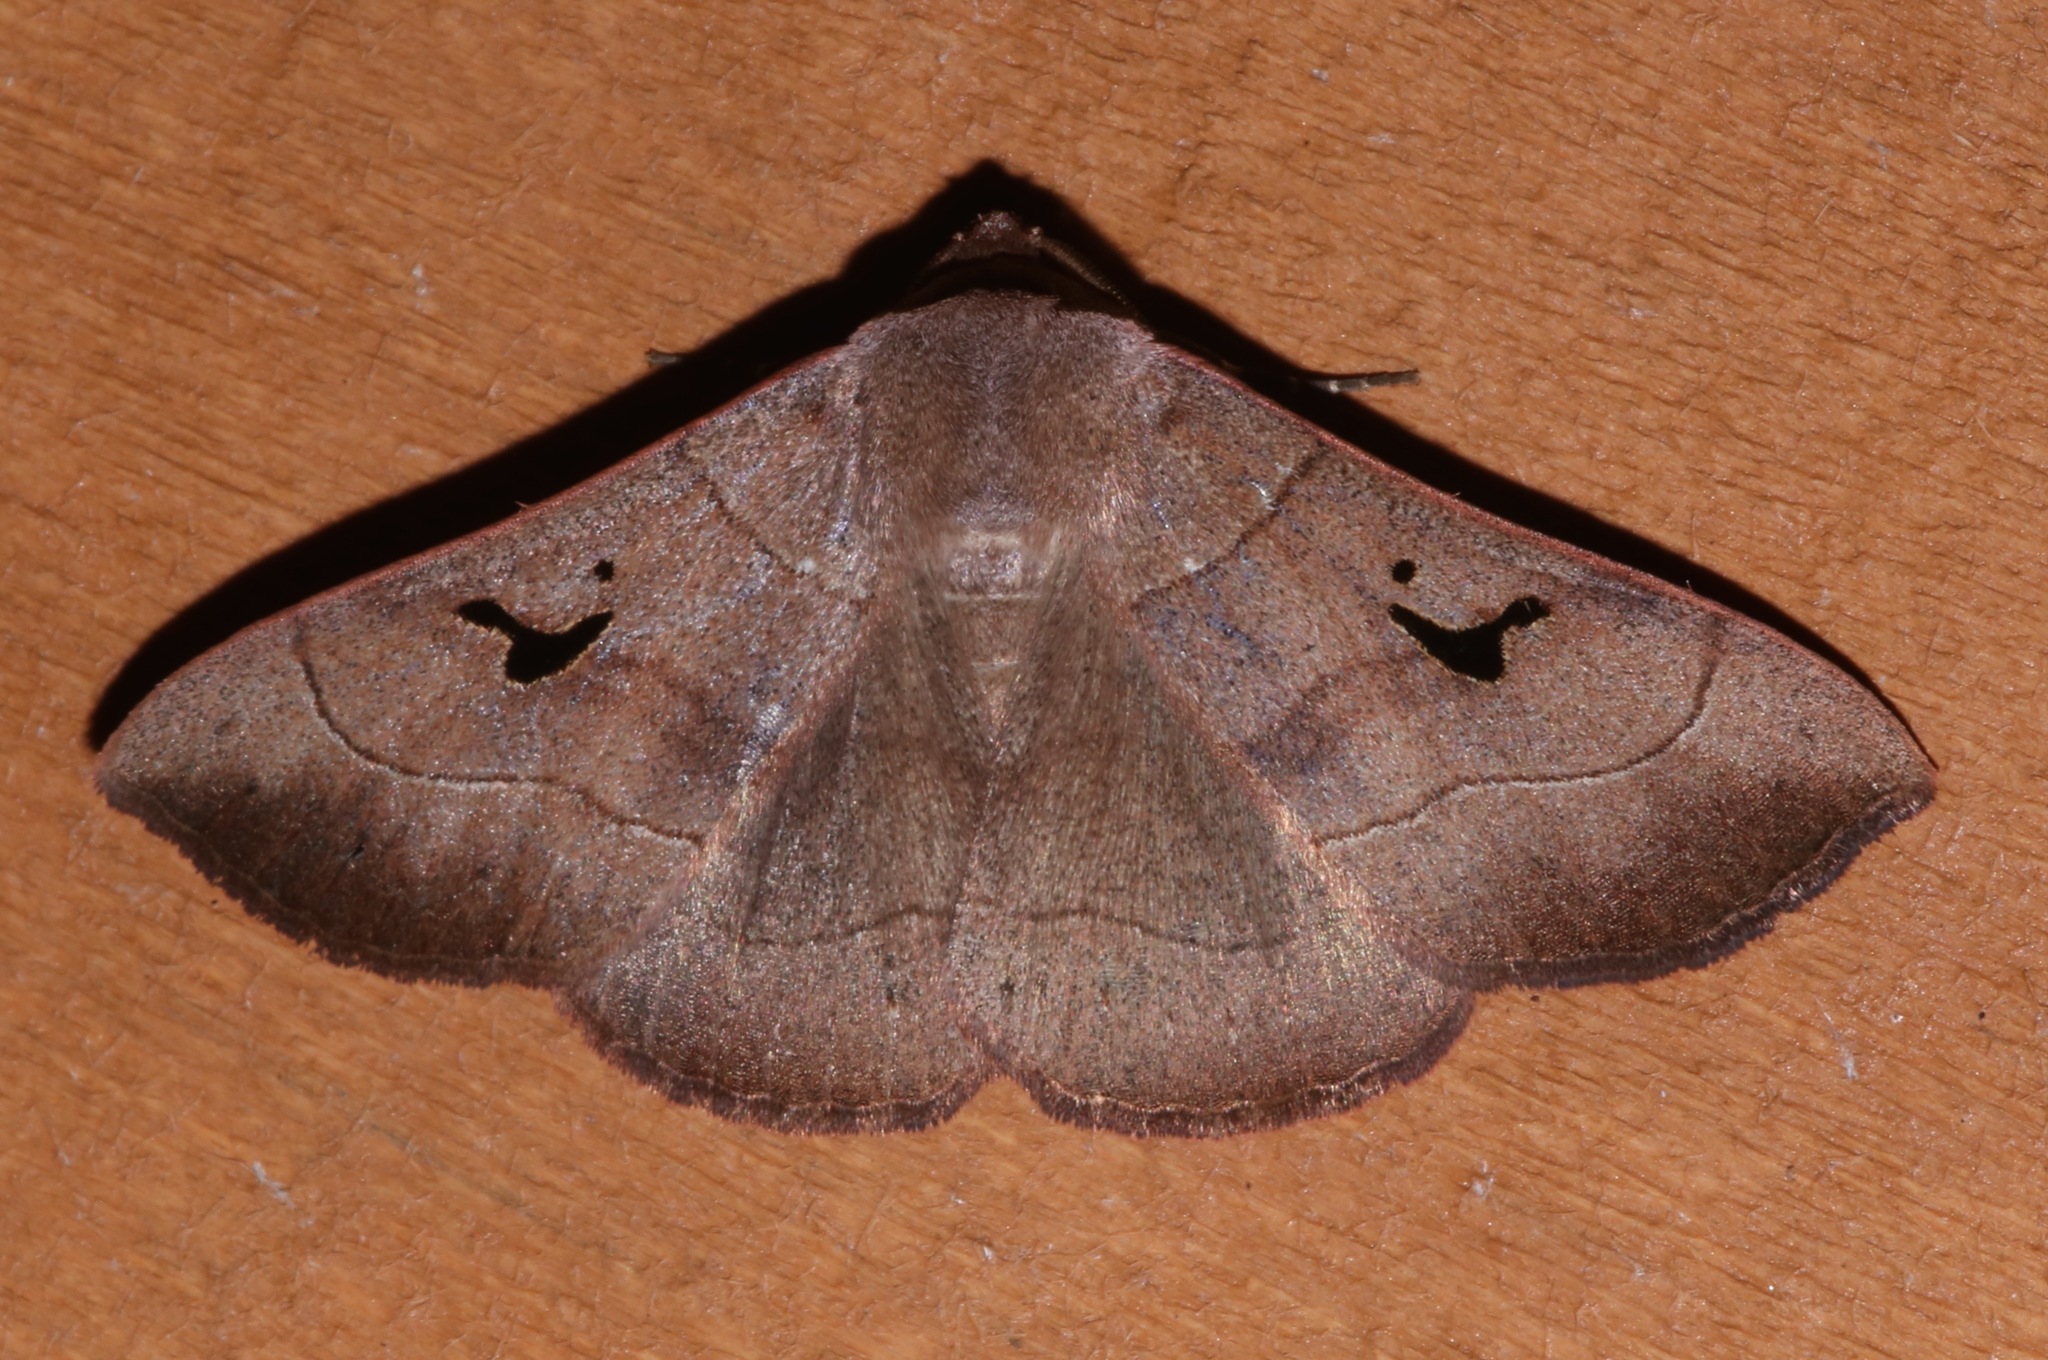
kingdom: Animalia
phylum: Arthropoda
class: Insecta
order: Lepidoptera
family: Erebidae
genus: Panopoda
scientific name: Panopoda carneicosta
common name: Brown panopoda moth
